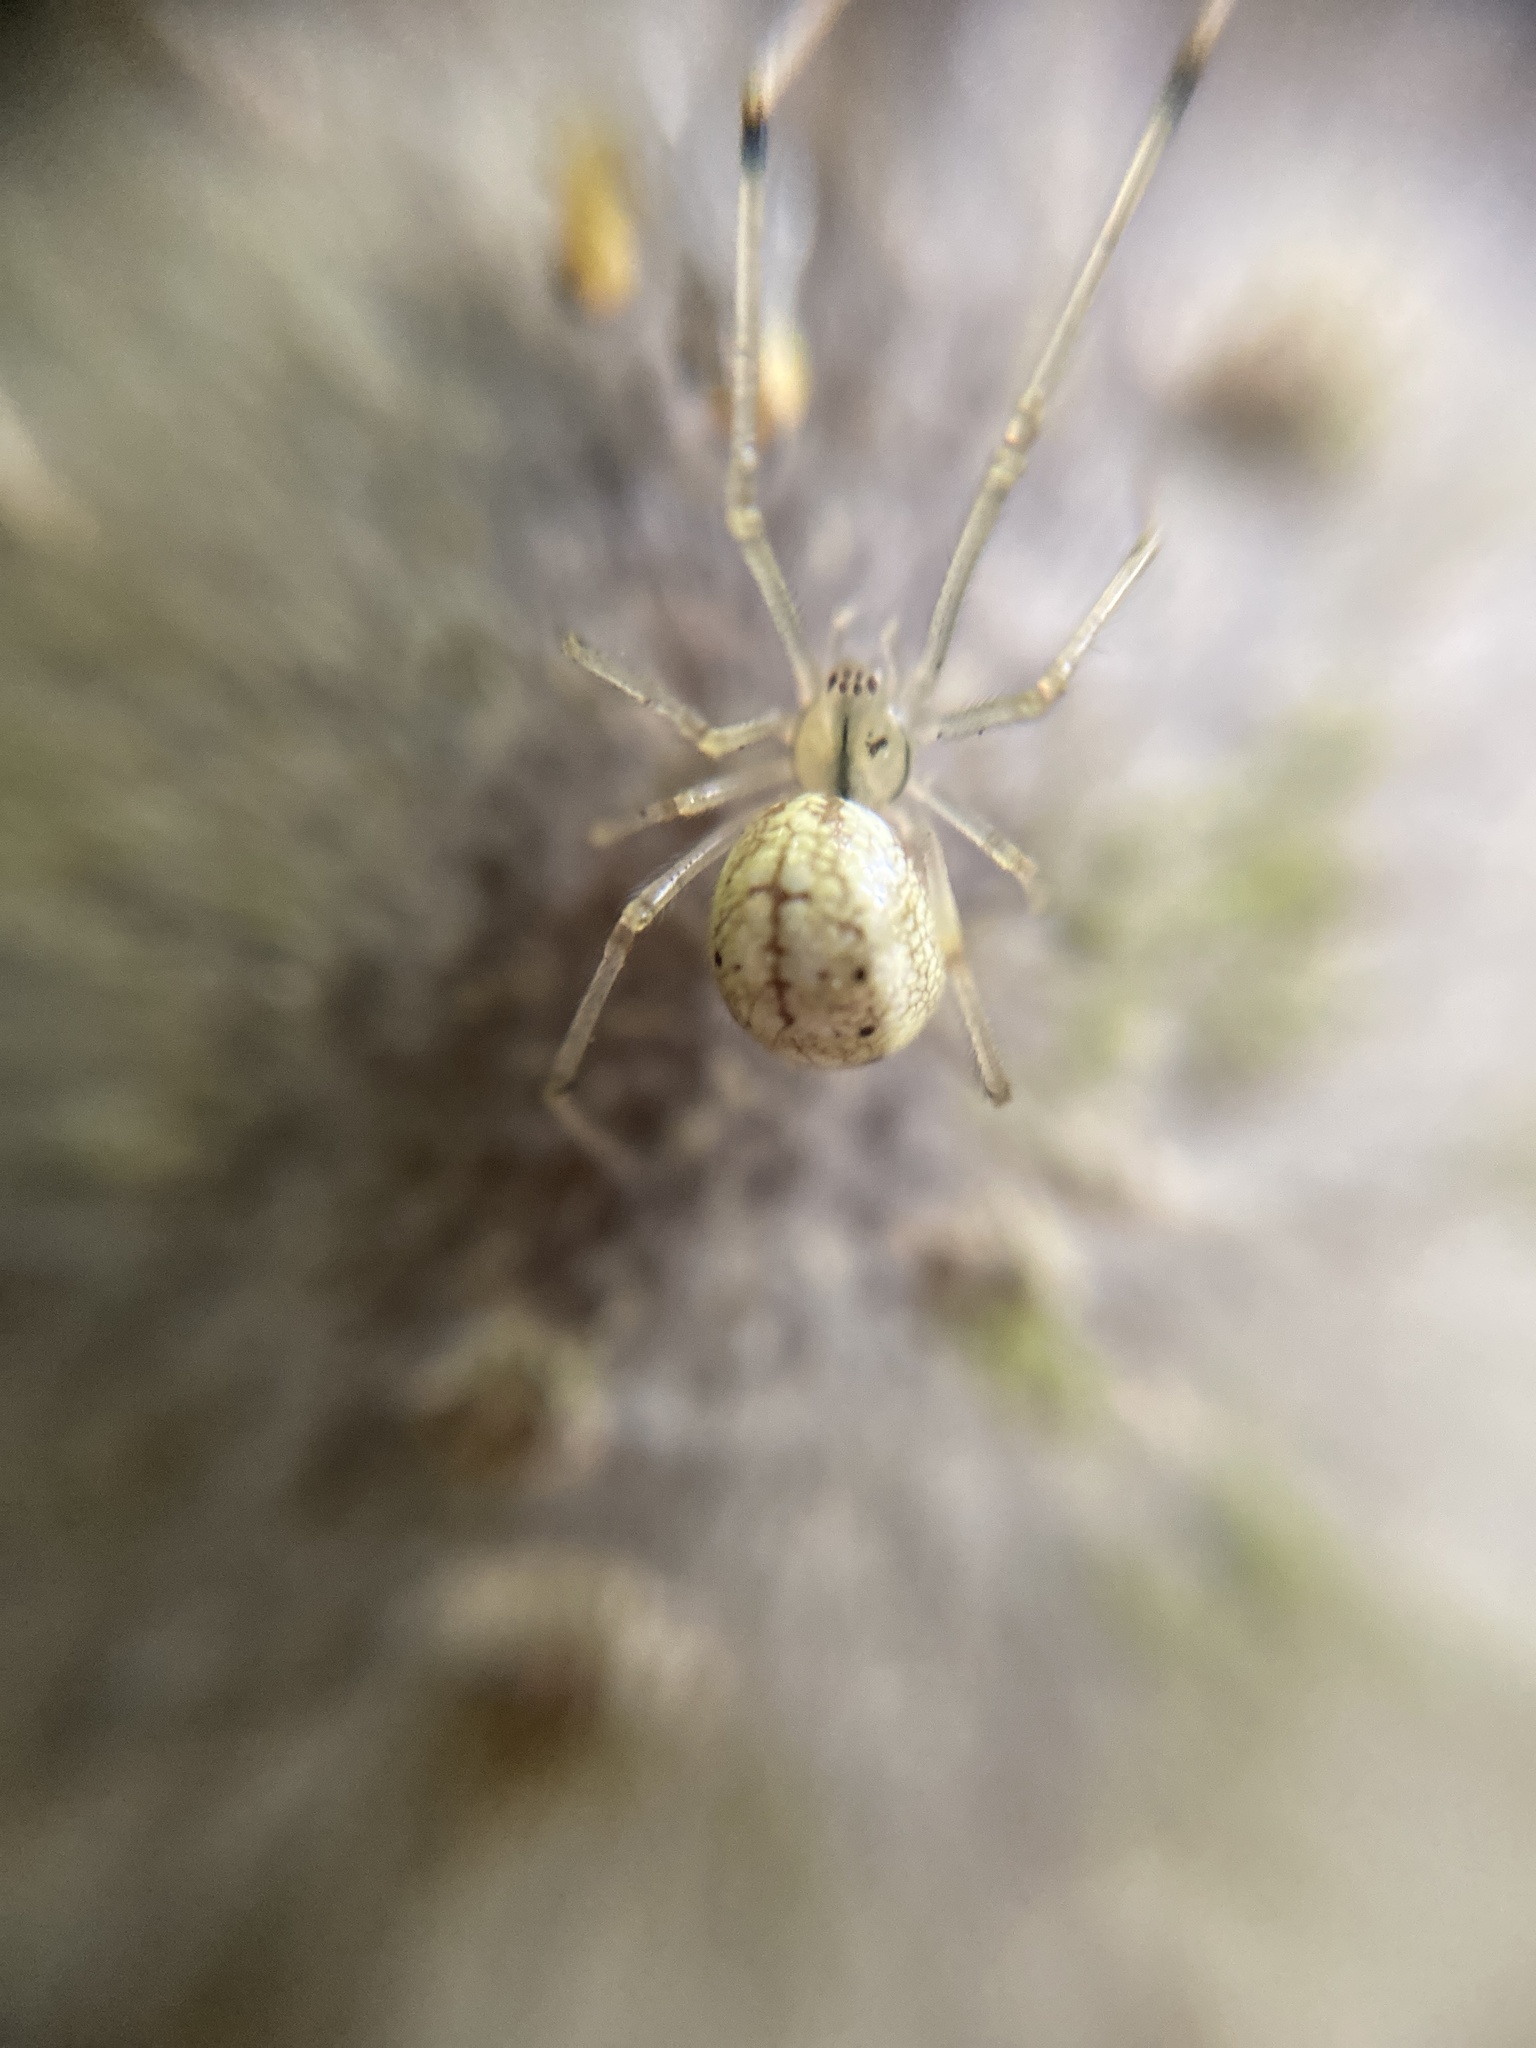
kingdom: Animalia
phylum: Arthropoda
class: Arachnida
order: Araneae
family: Theridiidae
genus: Enoplognatha
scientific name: Enoplognatha ovata
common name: Common candy-striped spider
